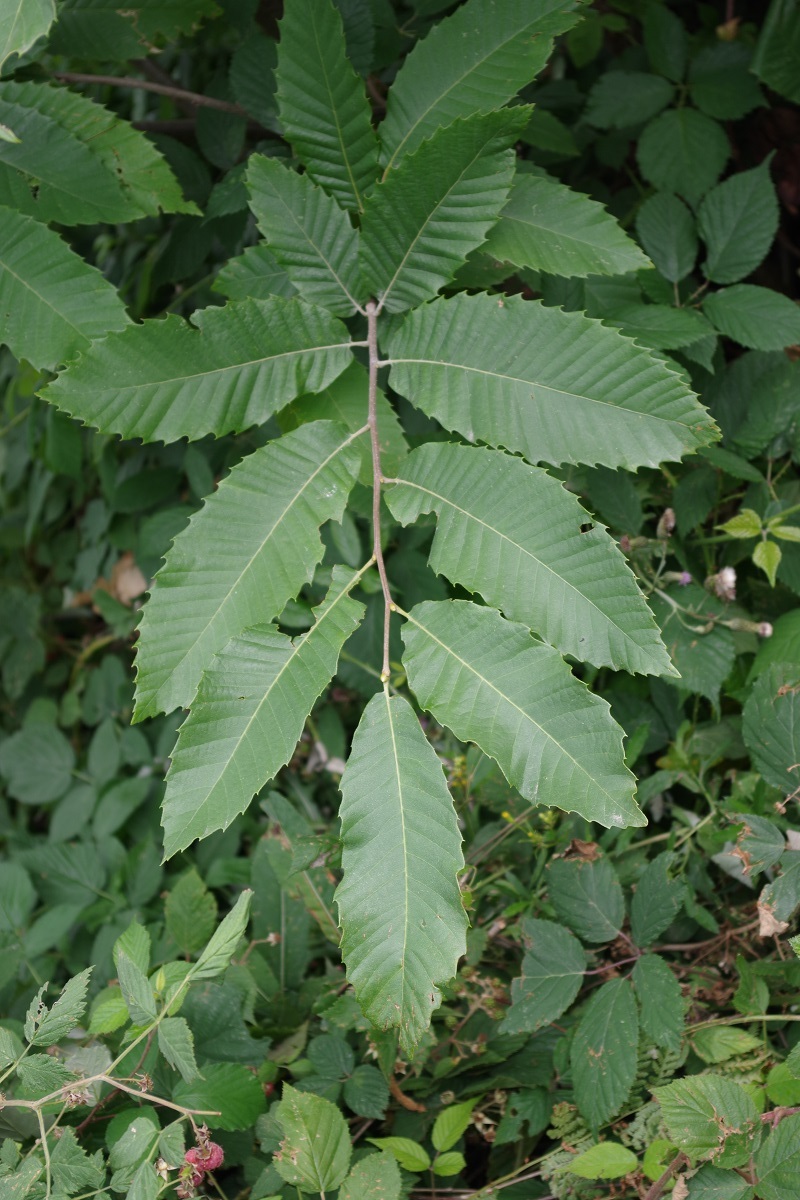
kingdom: Plantae
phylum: Tracheophyta
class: Magnoliopsida
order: Fagales
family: Fagaceae
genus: Castanea
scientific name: Castanea sativa
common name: Sweet chestnut
